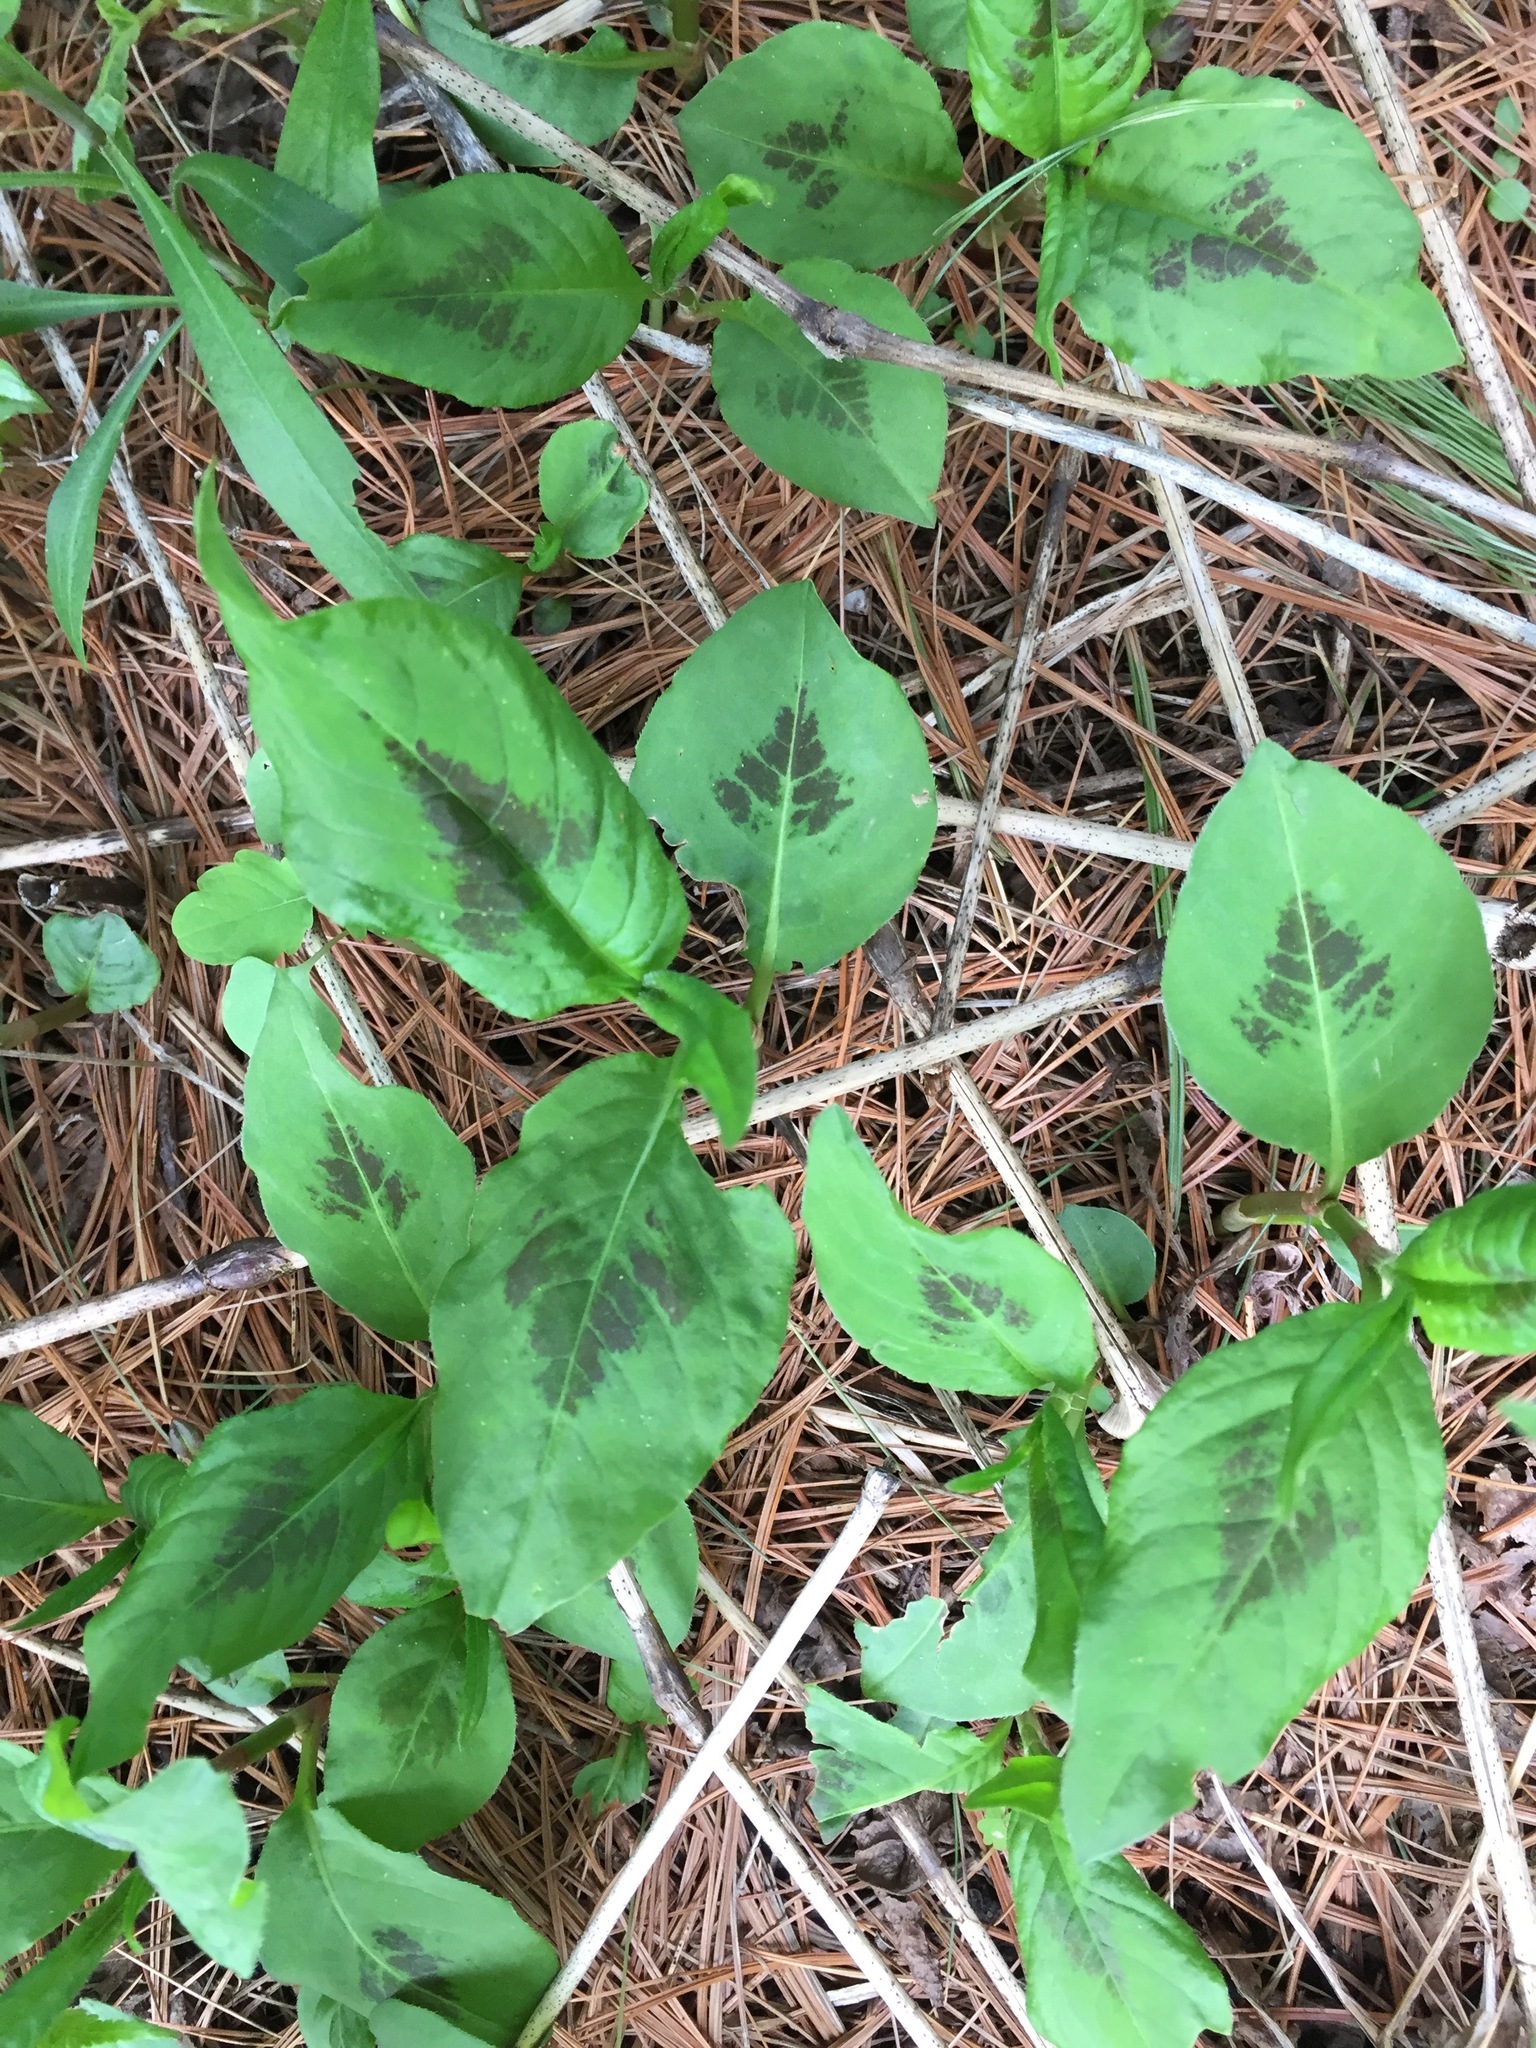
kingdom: Plantae
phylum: Tracheophyta
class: Magnoliopsida
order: Caryophyllales
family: Polygonaceae
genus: Persicaria
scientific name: Persicaria virginiana
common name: Jumpseed
